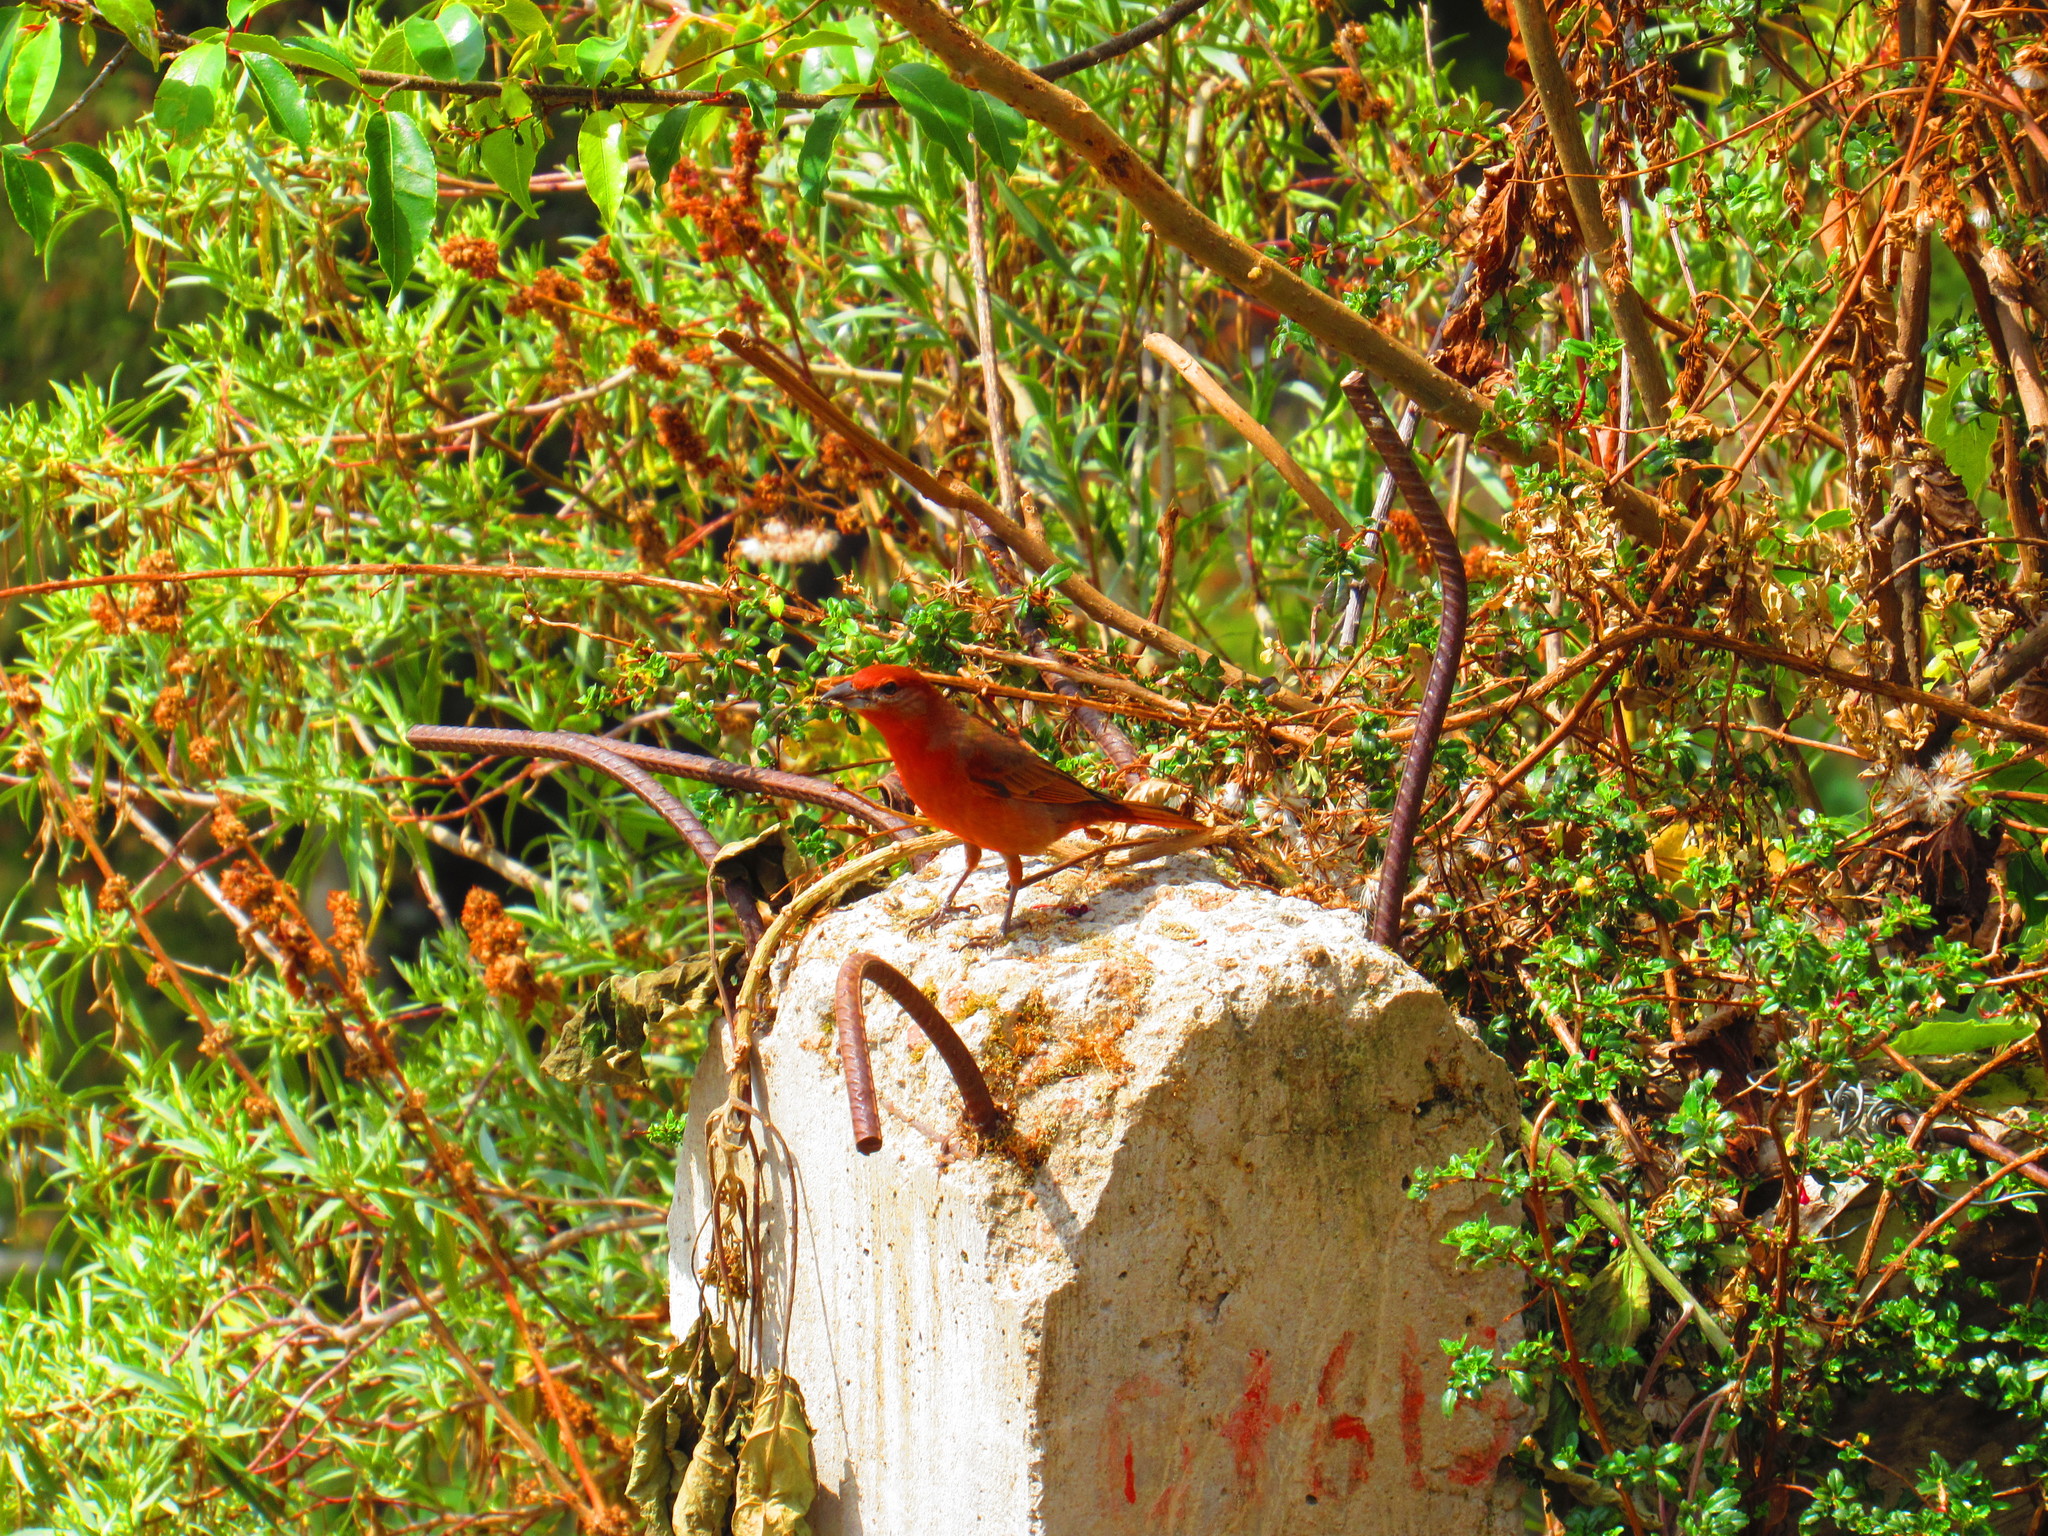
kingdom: Animalia
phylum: Chordata
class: Aves
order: Passeriformes
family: Cardinalidae
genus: Piranga
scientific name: Piranga flava
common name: Red tanager
